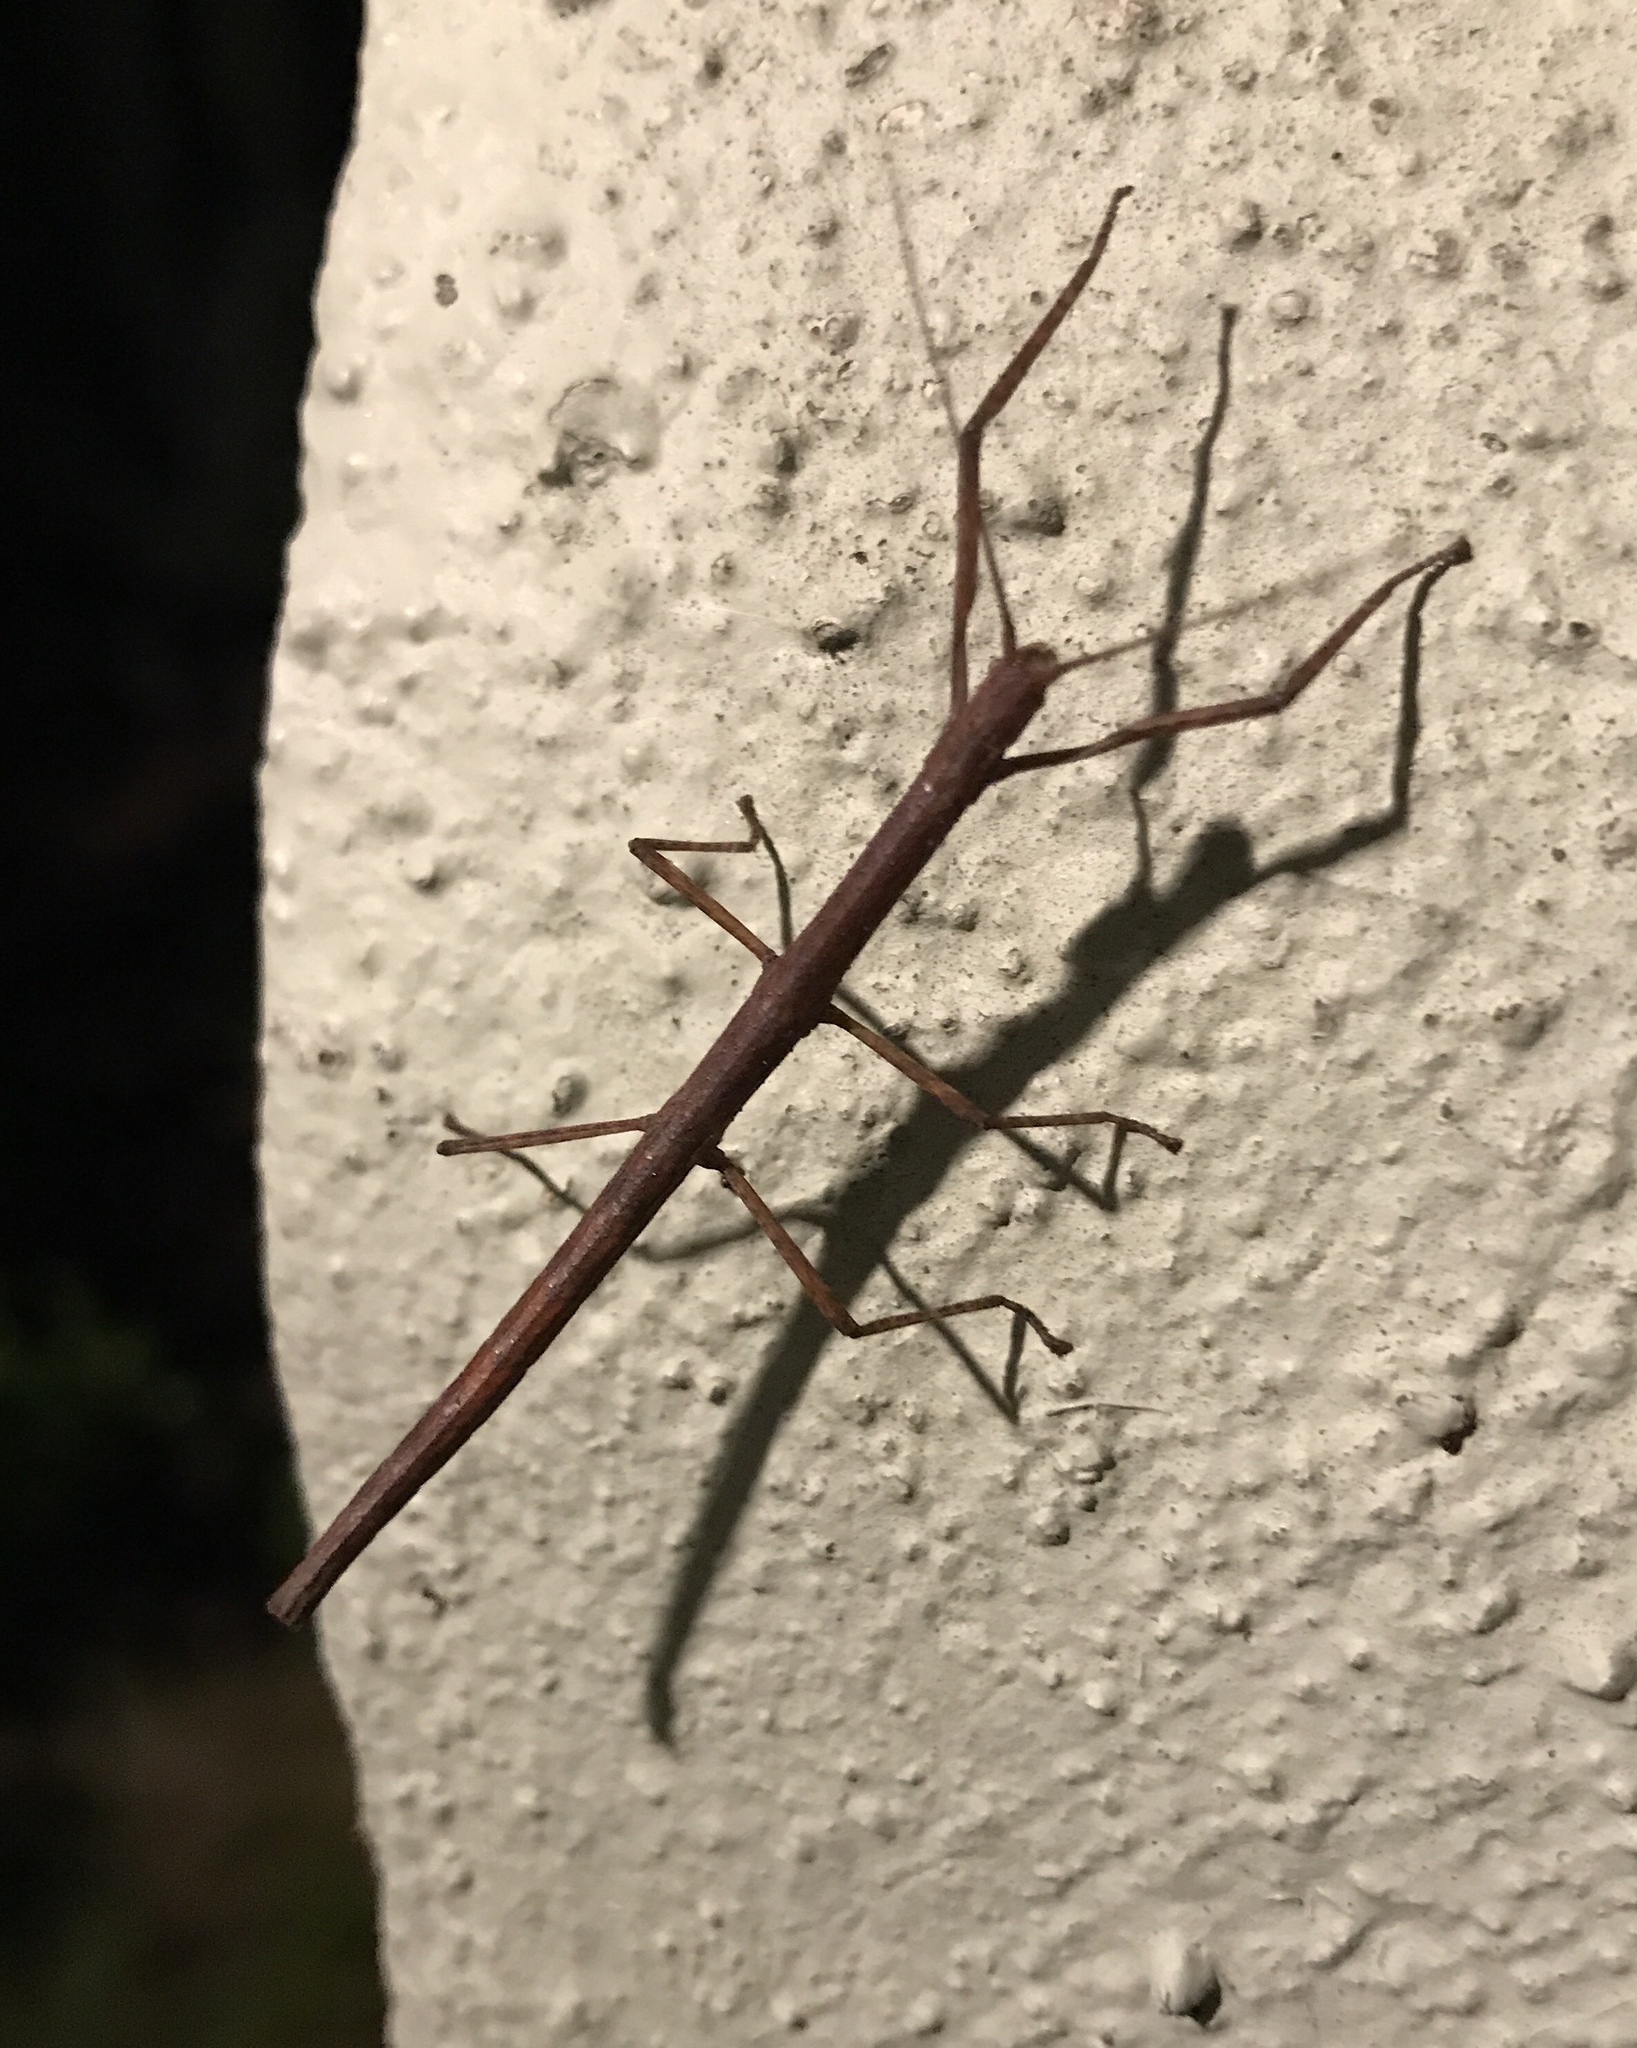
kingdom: Animalia
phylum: Arthropoda
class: Insecta
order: Phasmida
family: Lonchodidae
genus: Carausius
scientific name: Carausius morosus
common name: Indian stick insect
